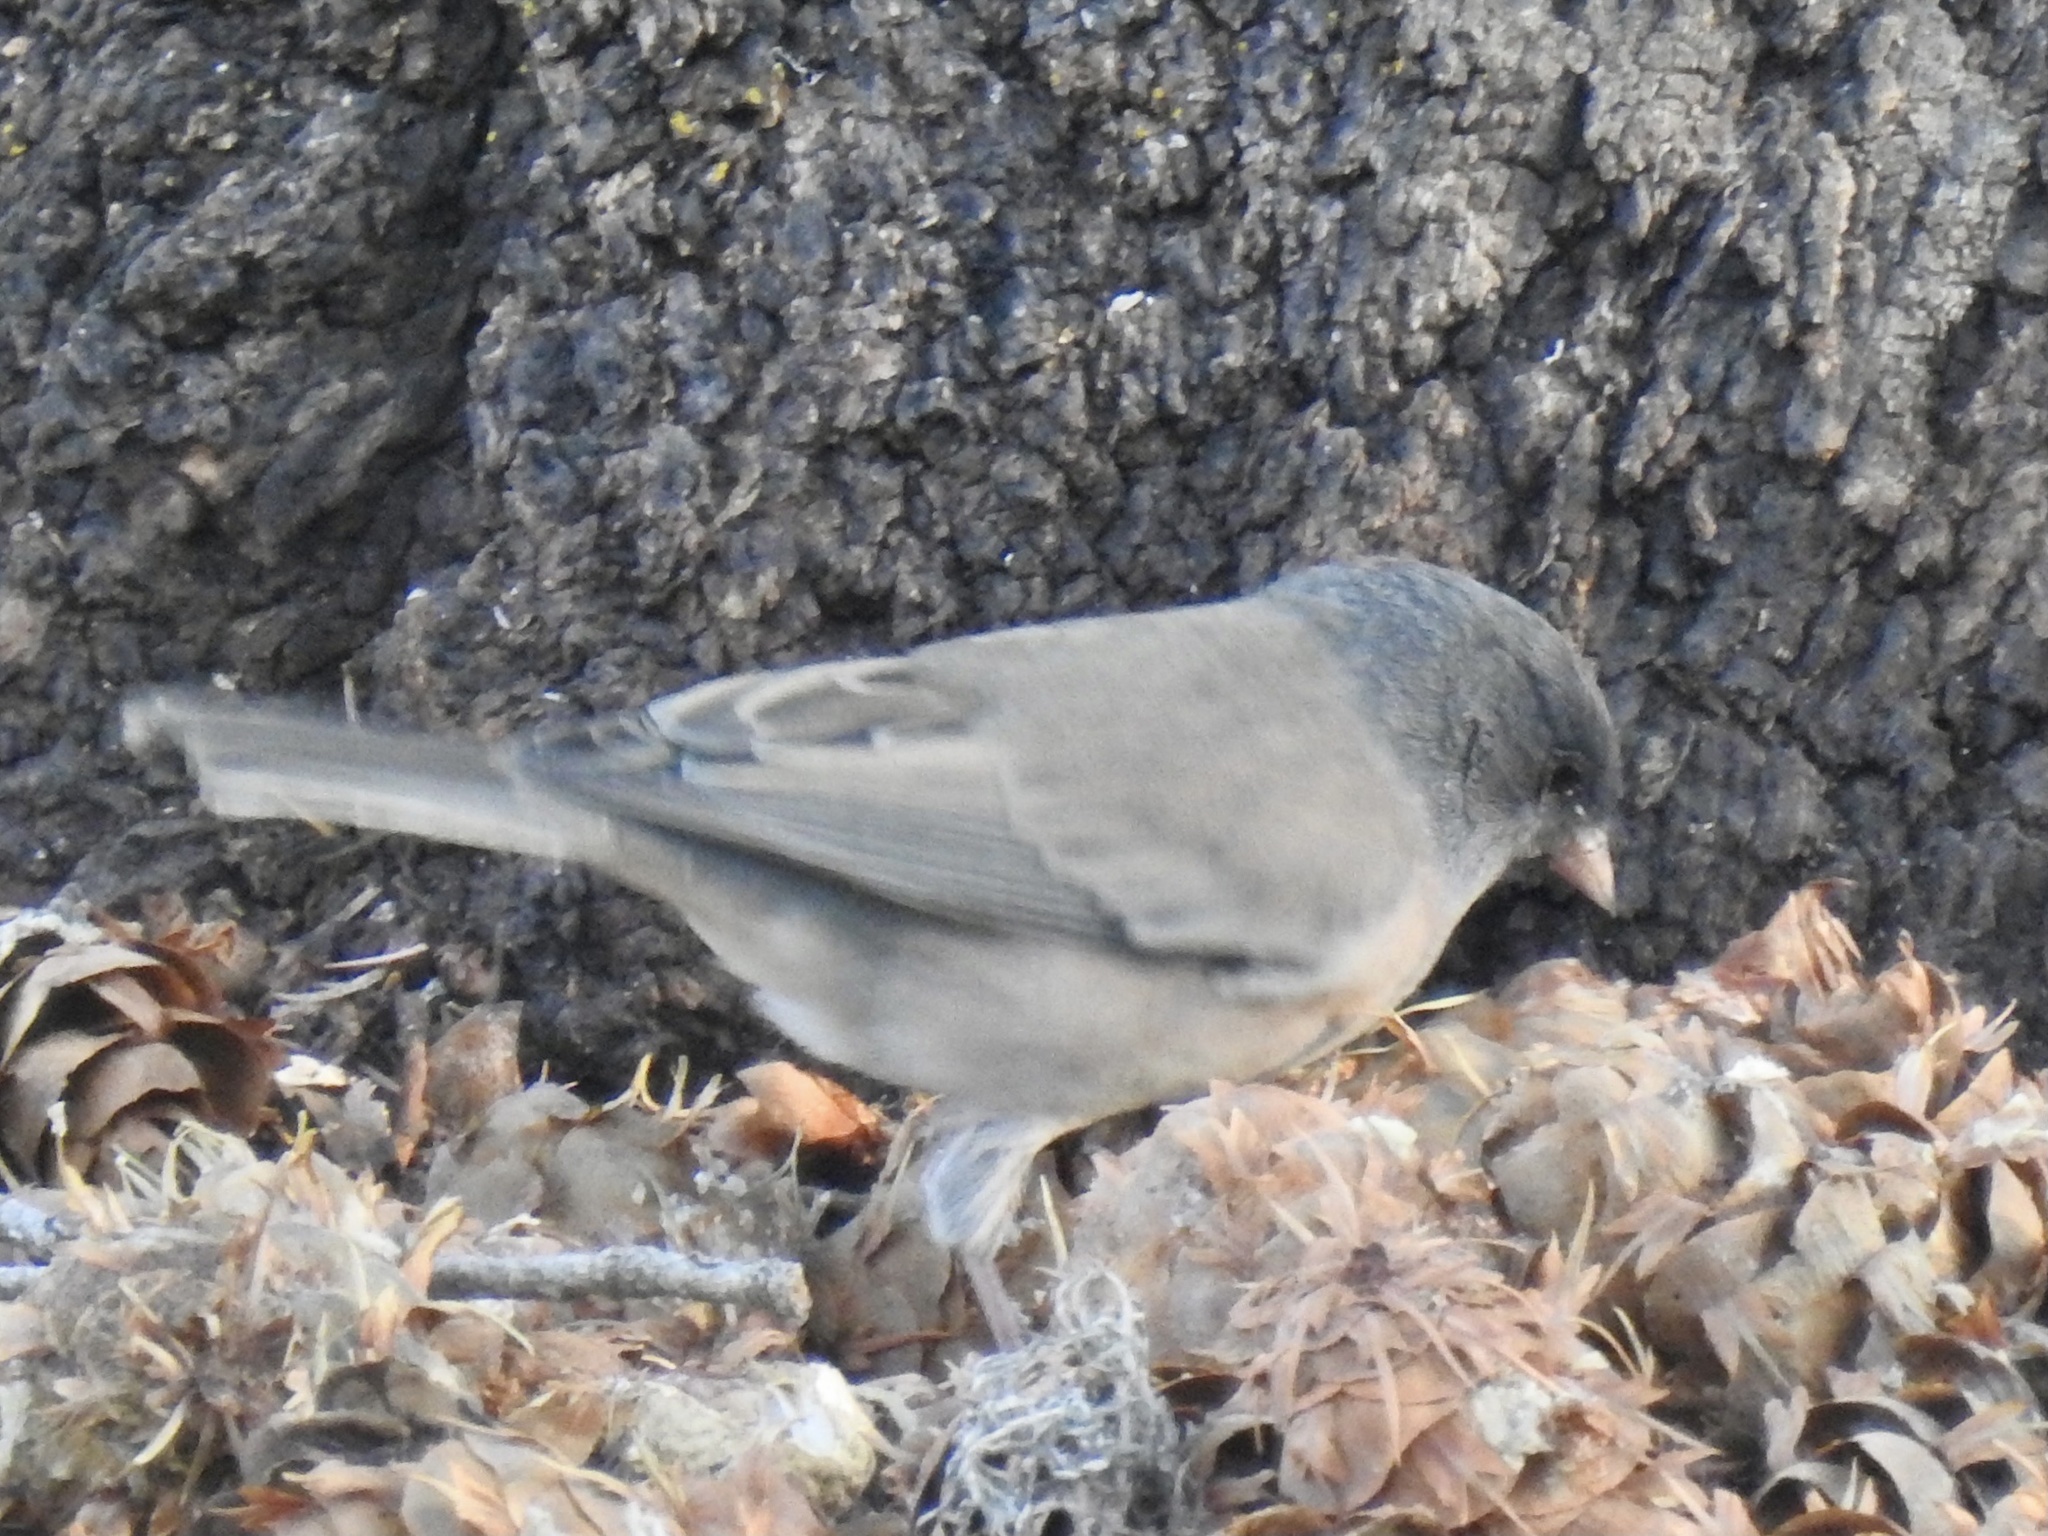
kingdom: Animalia
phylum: Chordata
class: Aves
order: Passeriformes
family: Passerellidae
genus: Junco
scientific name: Junco hyemalis
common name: Dark-eyed junco
